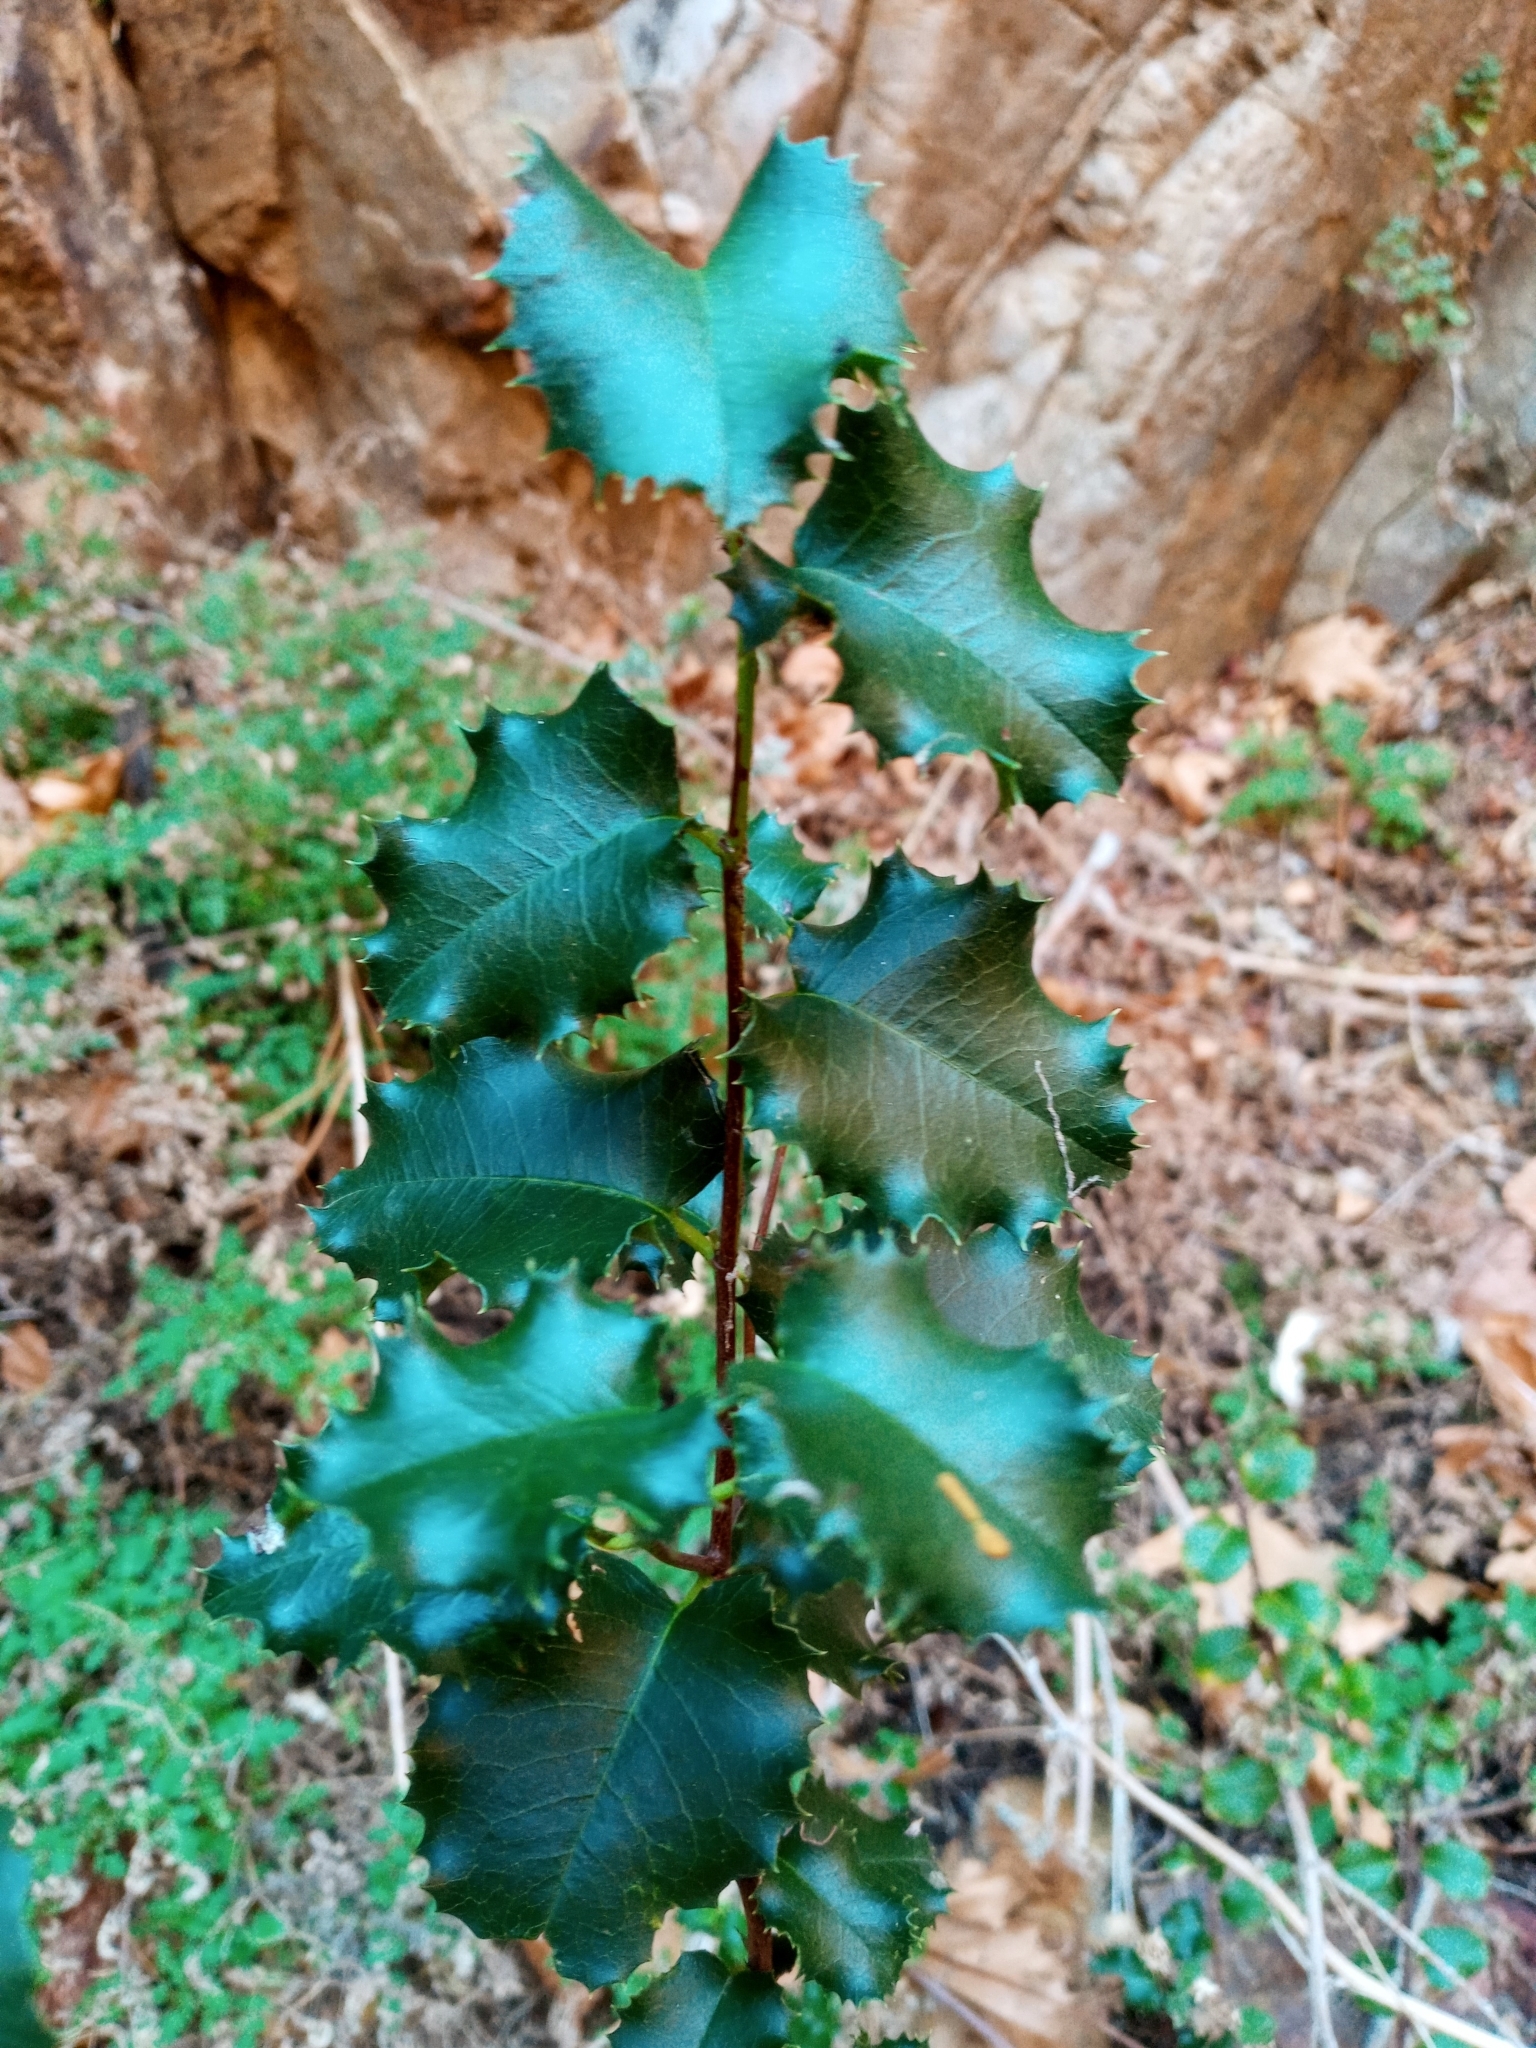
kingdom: Plantae
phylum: Tracheophyta
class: Magnoliopsida
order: Rosales
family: Rosaceae
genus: Prunus
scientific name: Prunus ilicifolia
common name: Hollyleaf cherry
